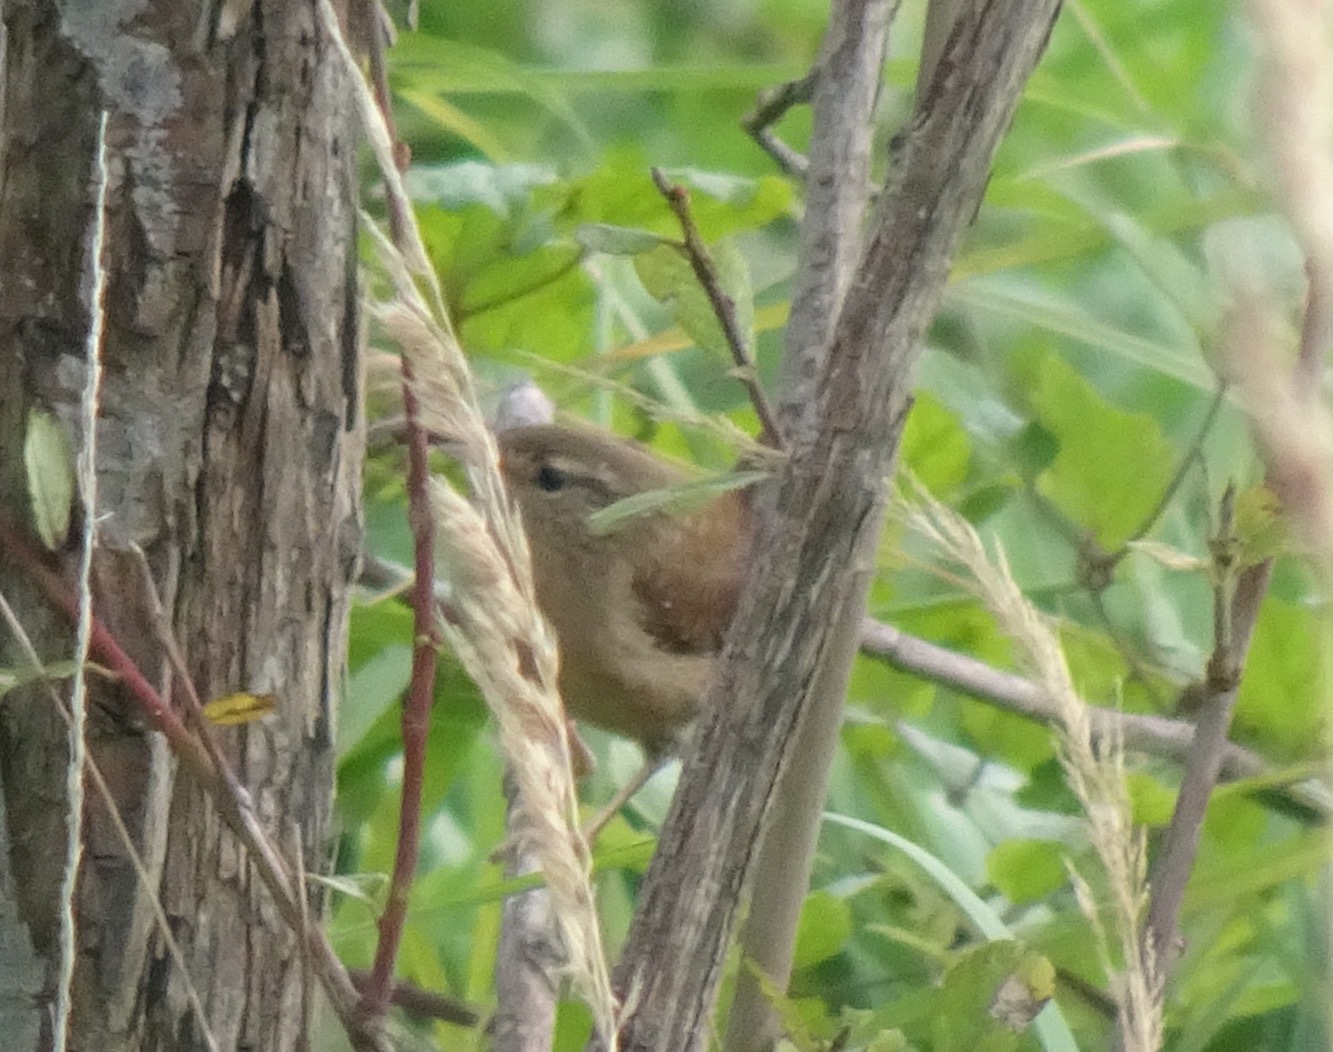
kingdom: Animalia
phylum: Chordata
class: Aves
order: Passeriformes
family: Troglodytidae
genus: Troglodytes
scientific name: Troglodytes troglodytes
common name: Eurasian wren
